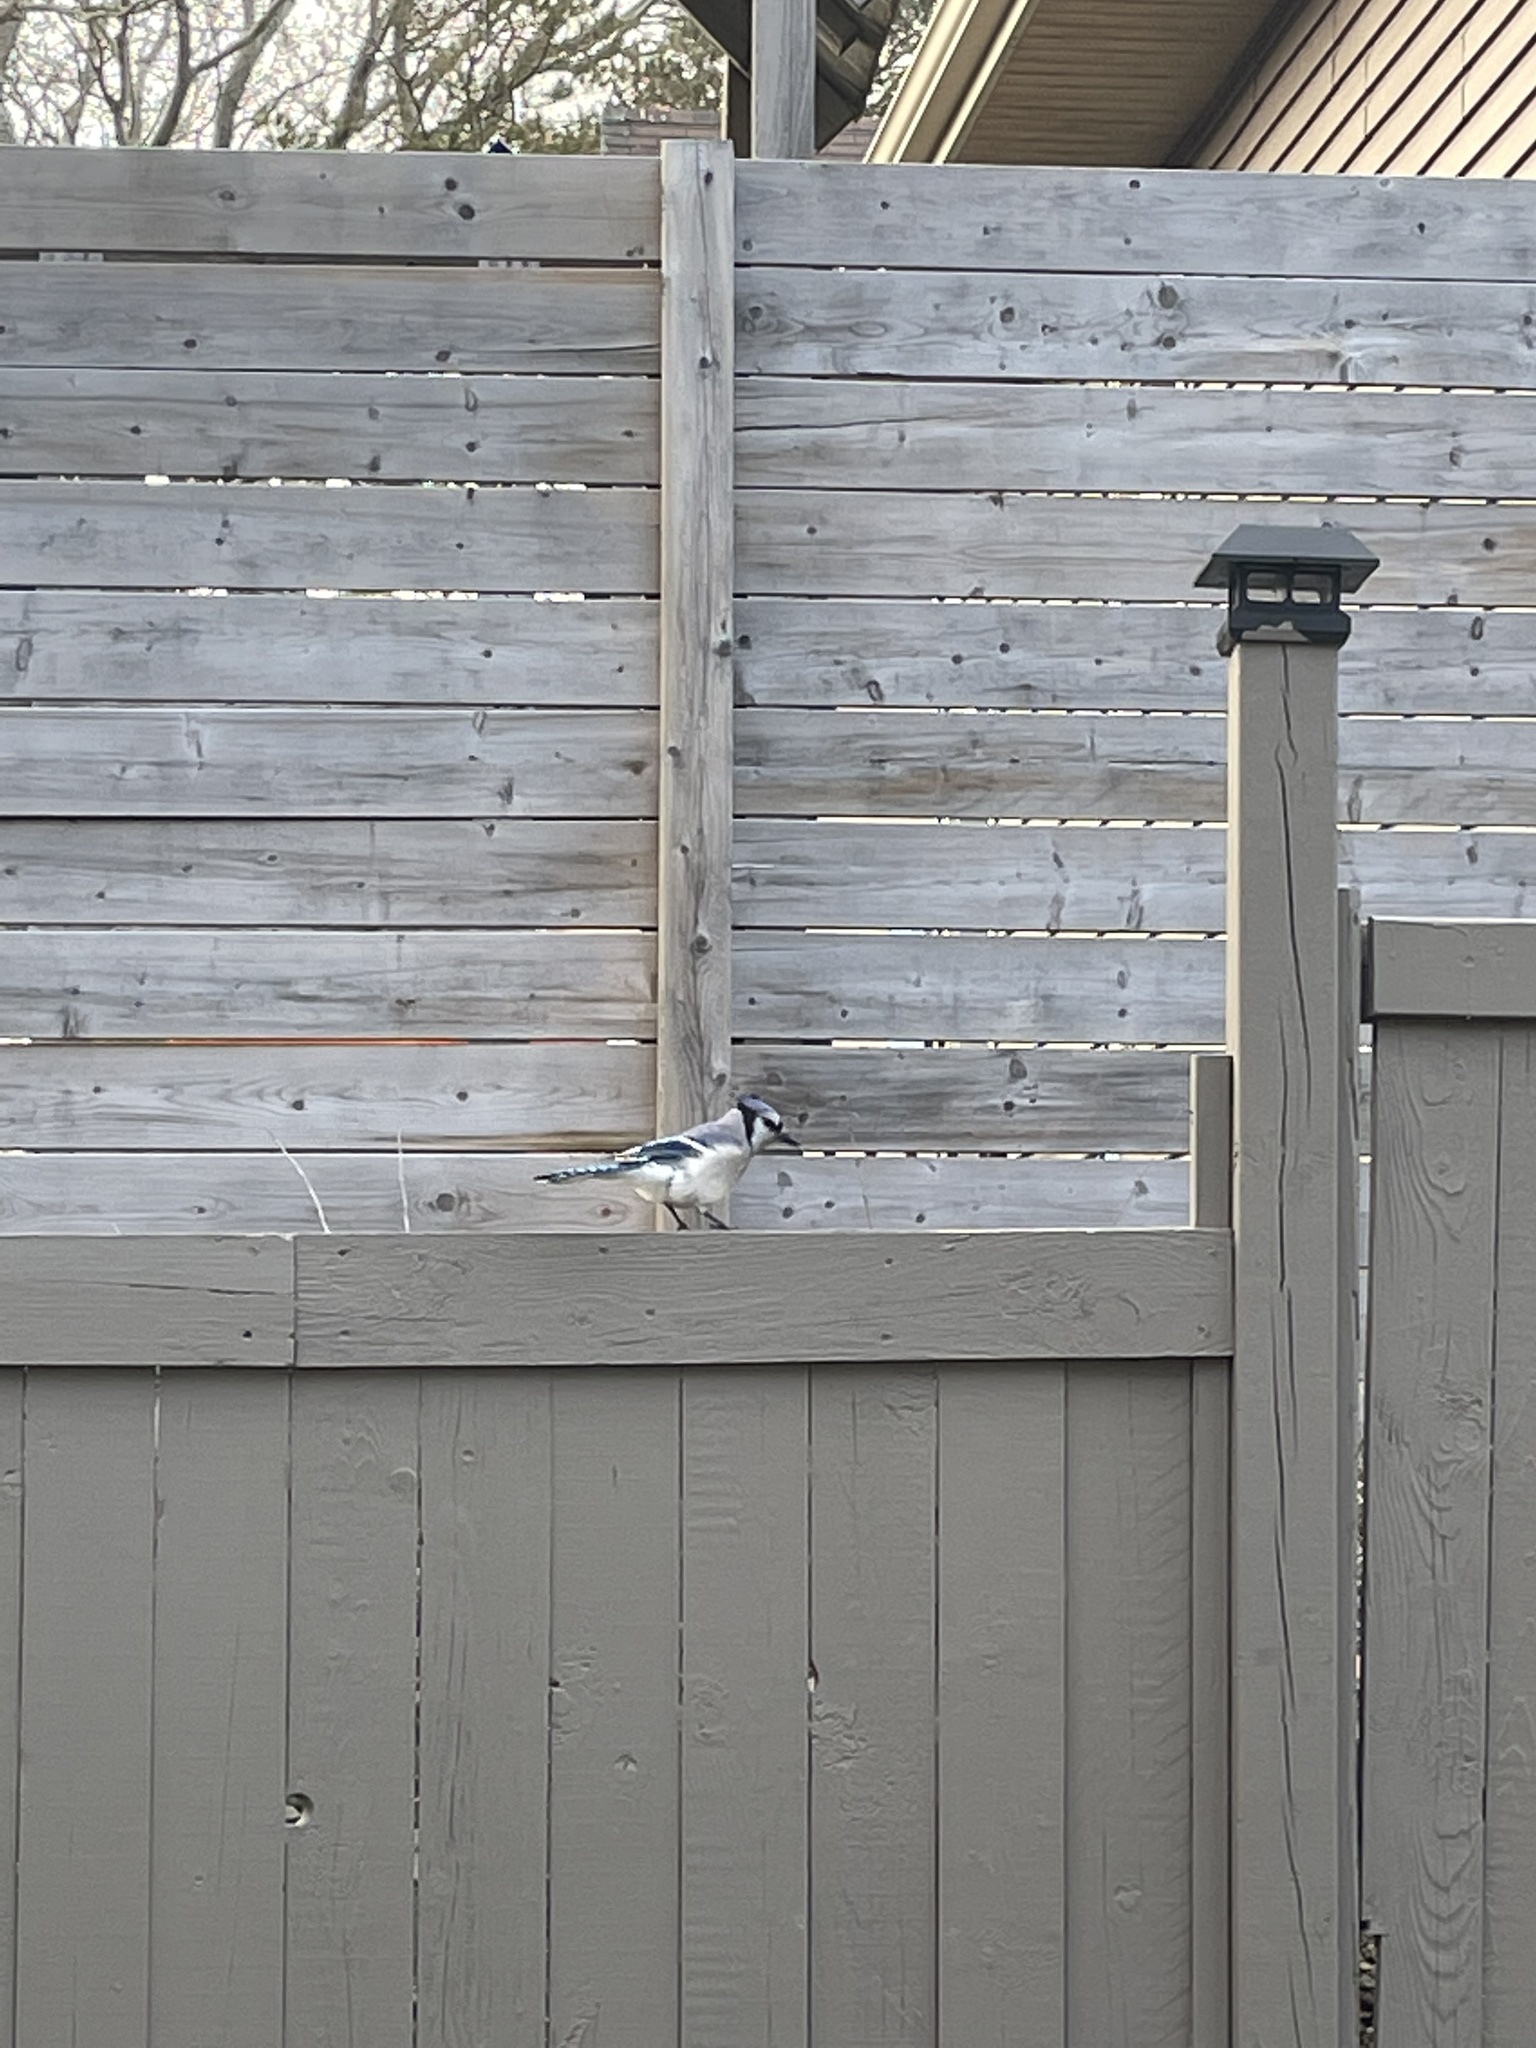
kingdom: Animalia
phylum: Chordata
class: Aves
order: Passeriformes
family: Corvidae
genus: Cyanocitta
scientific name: Cyanocitta cristata
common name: Blue jay
